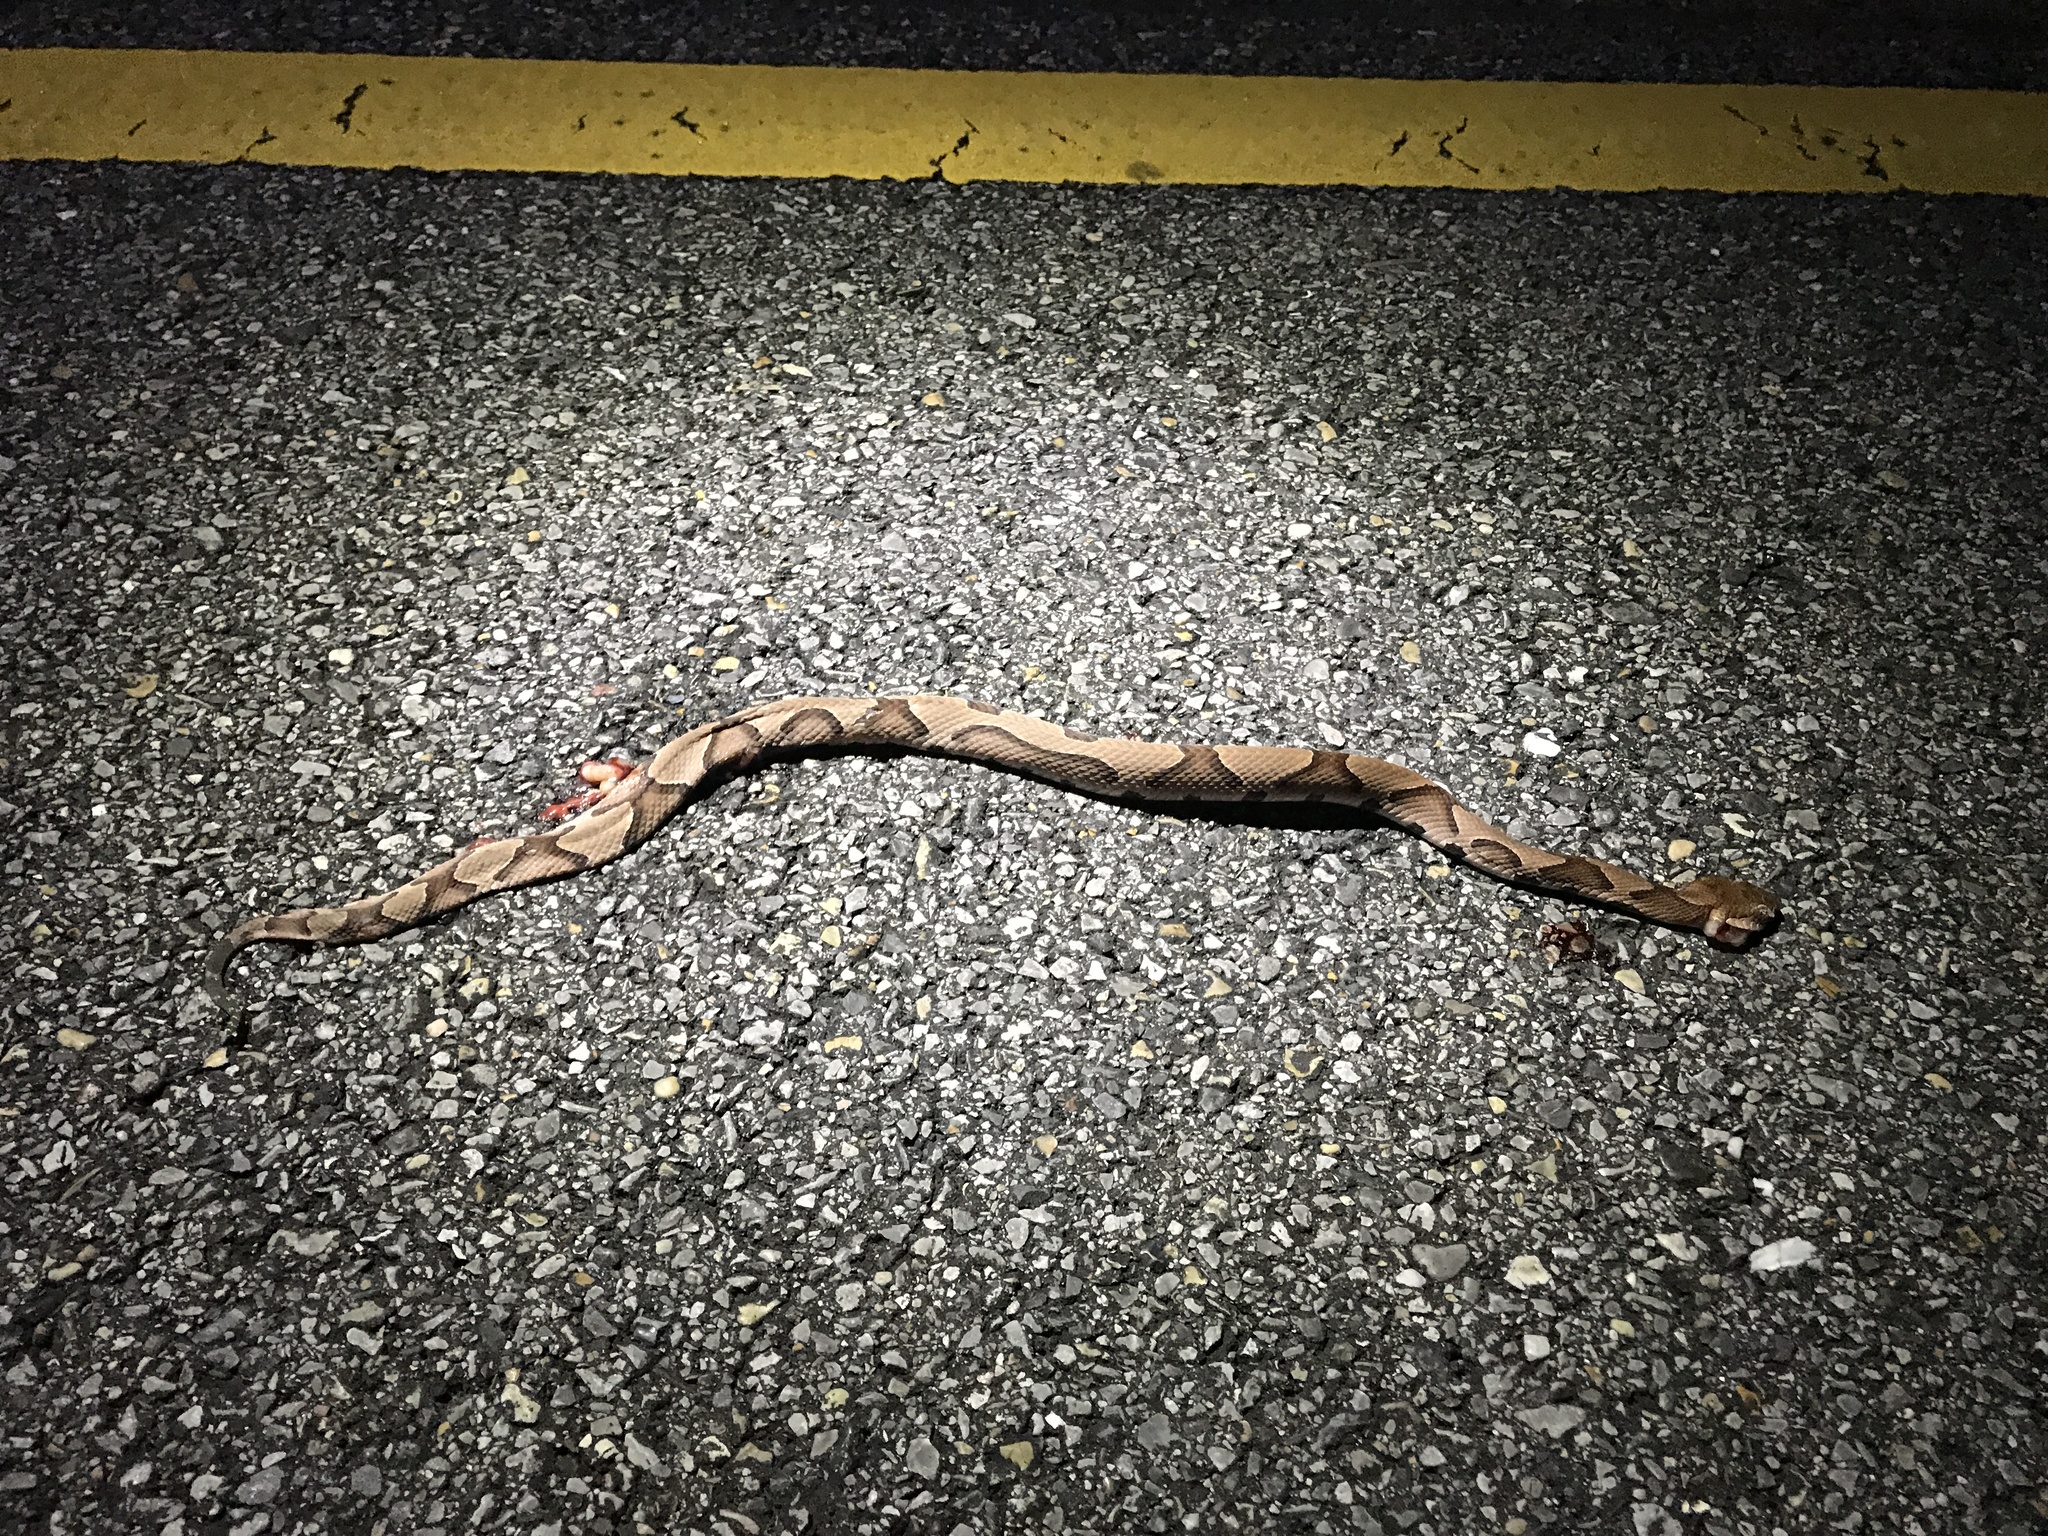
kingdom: Animalia
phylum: Chordata
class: Squamata
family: Viperidae
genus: Agkistrodon
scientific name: Agkistrodon contortrix
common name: Northern copperhead
